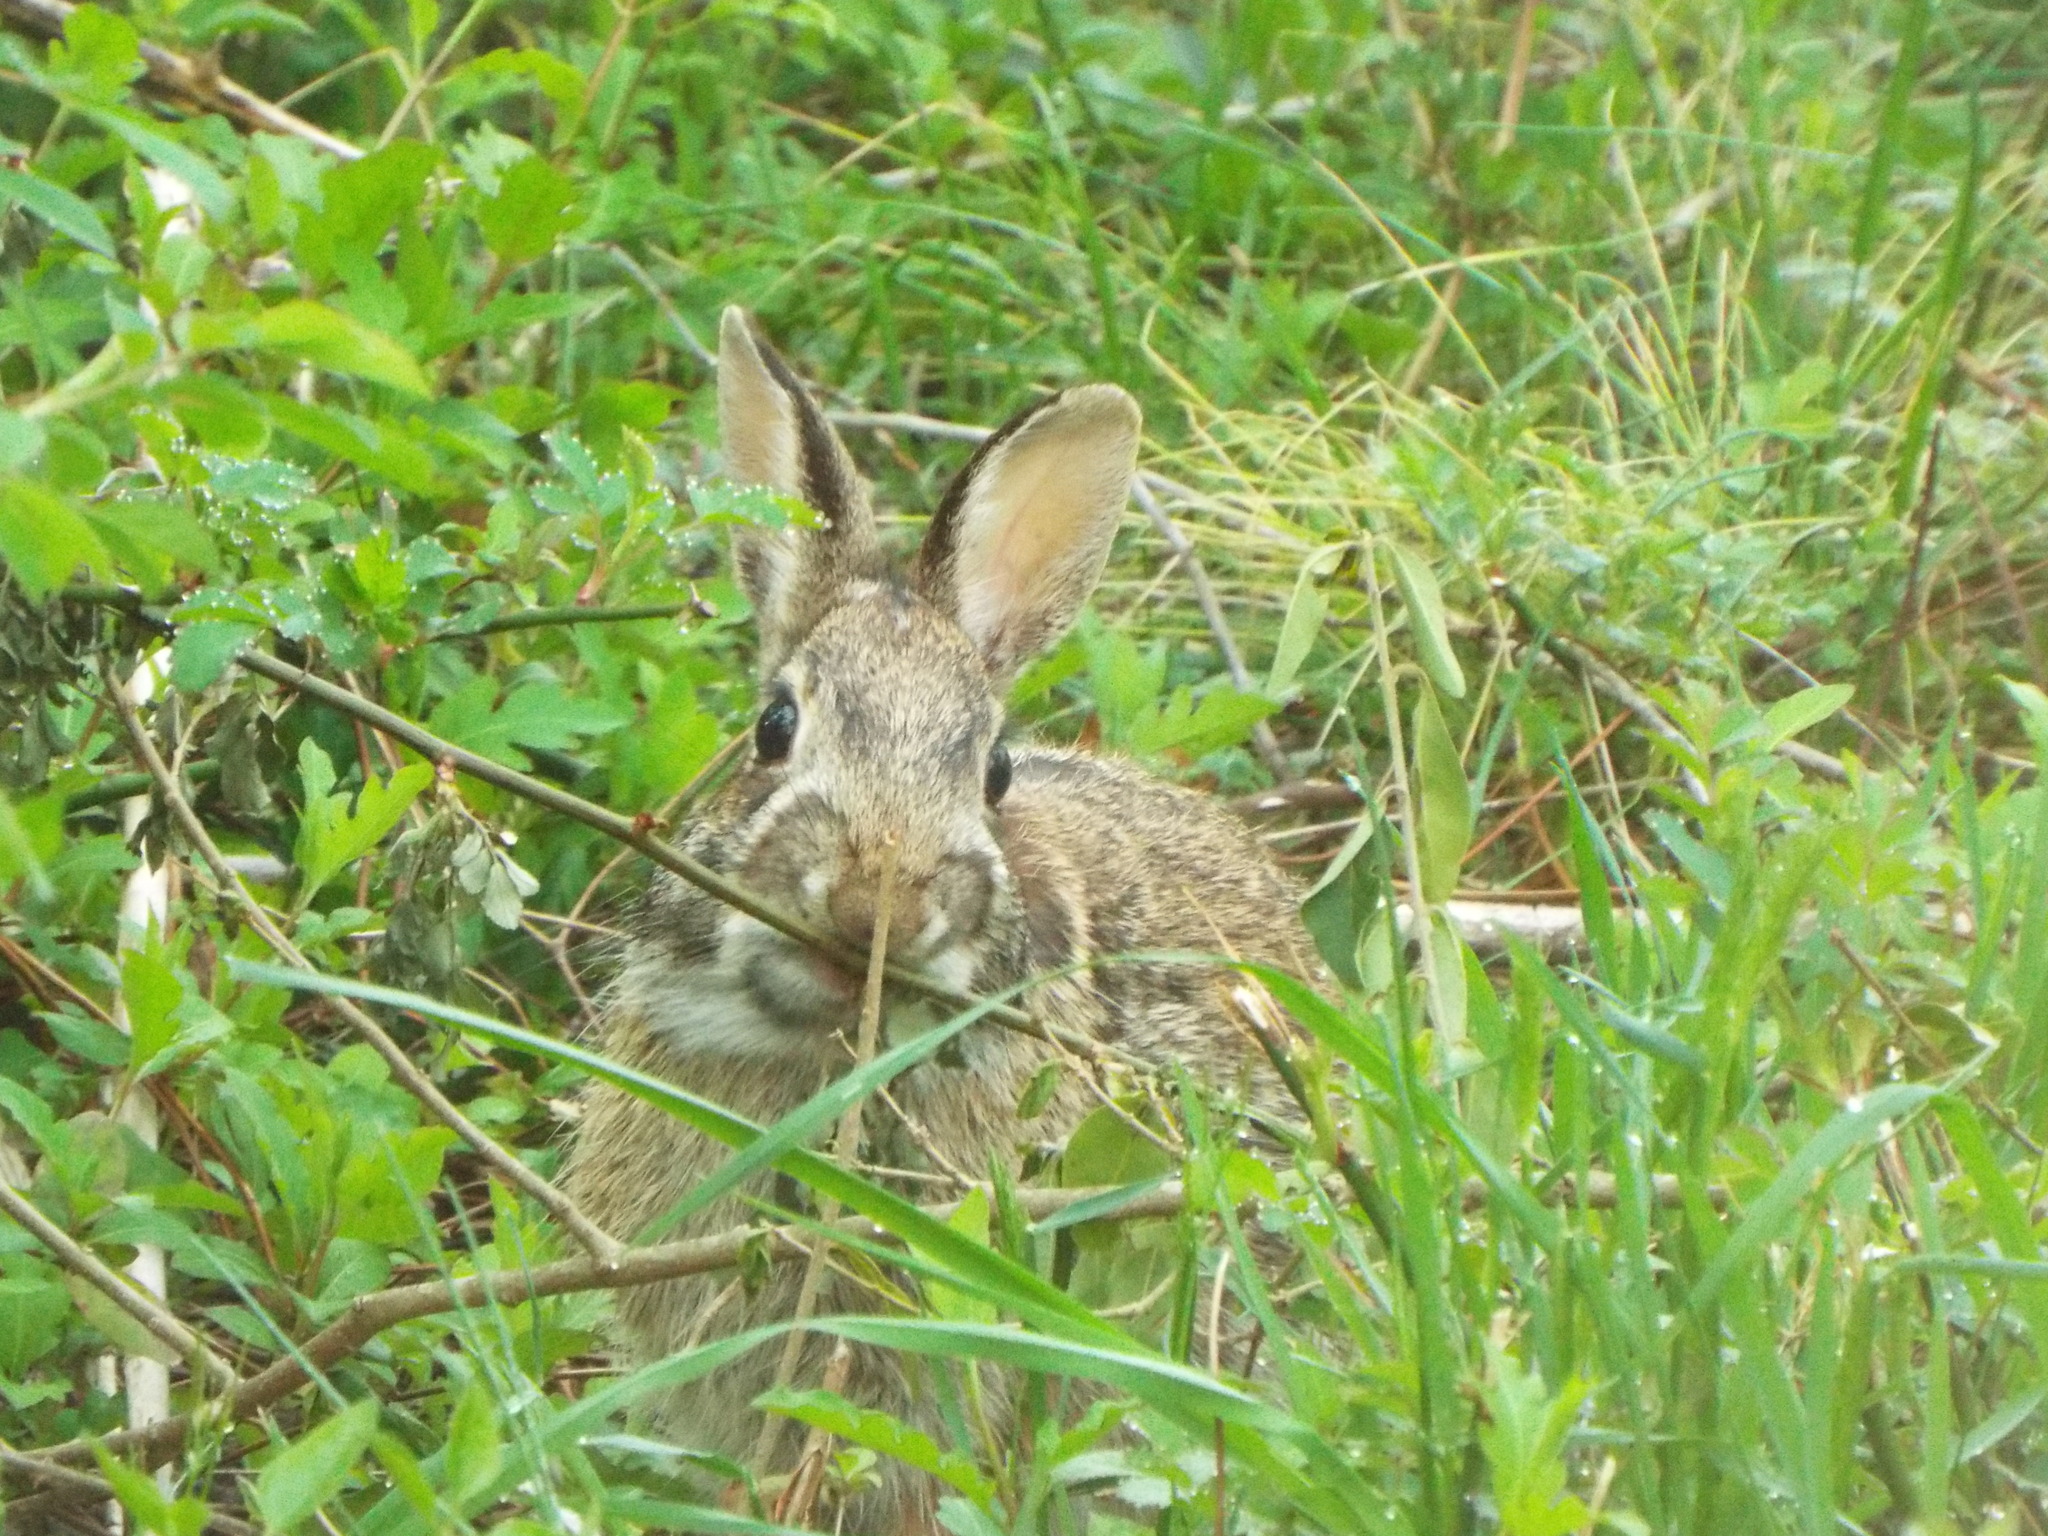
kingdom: Animalia
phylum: Chordata
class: Mammalia
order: Lagomorpha
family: Leporidae
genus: Sylvilagus
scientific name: Sylvilagus floridanus
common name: Eastern cottontail
